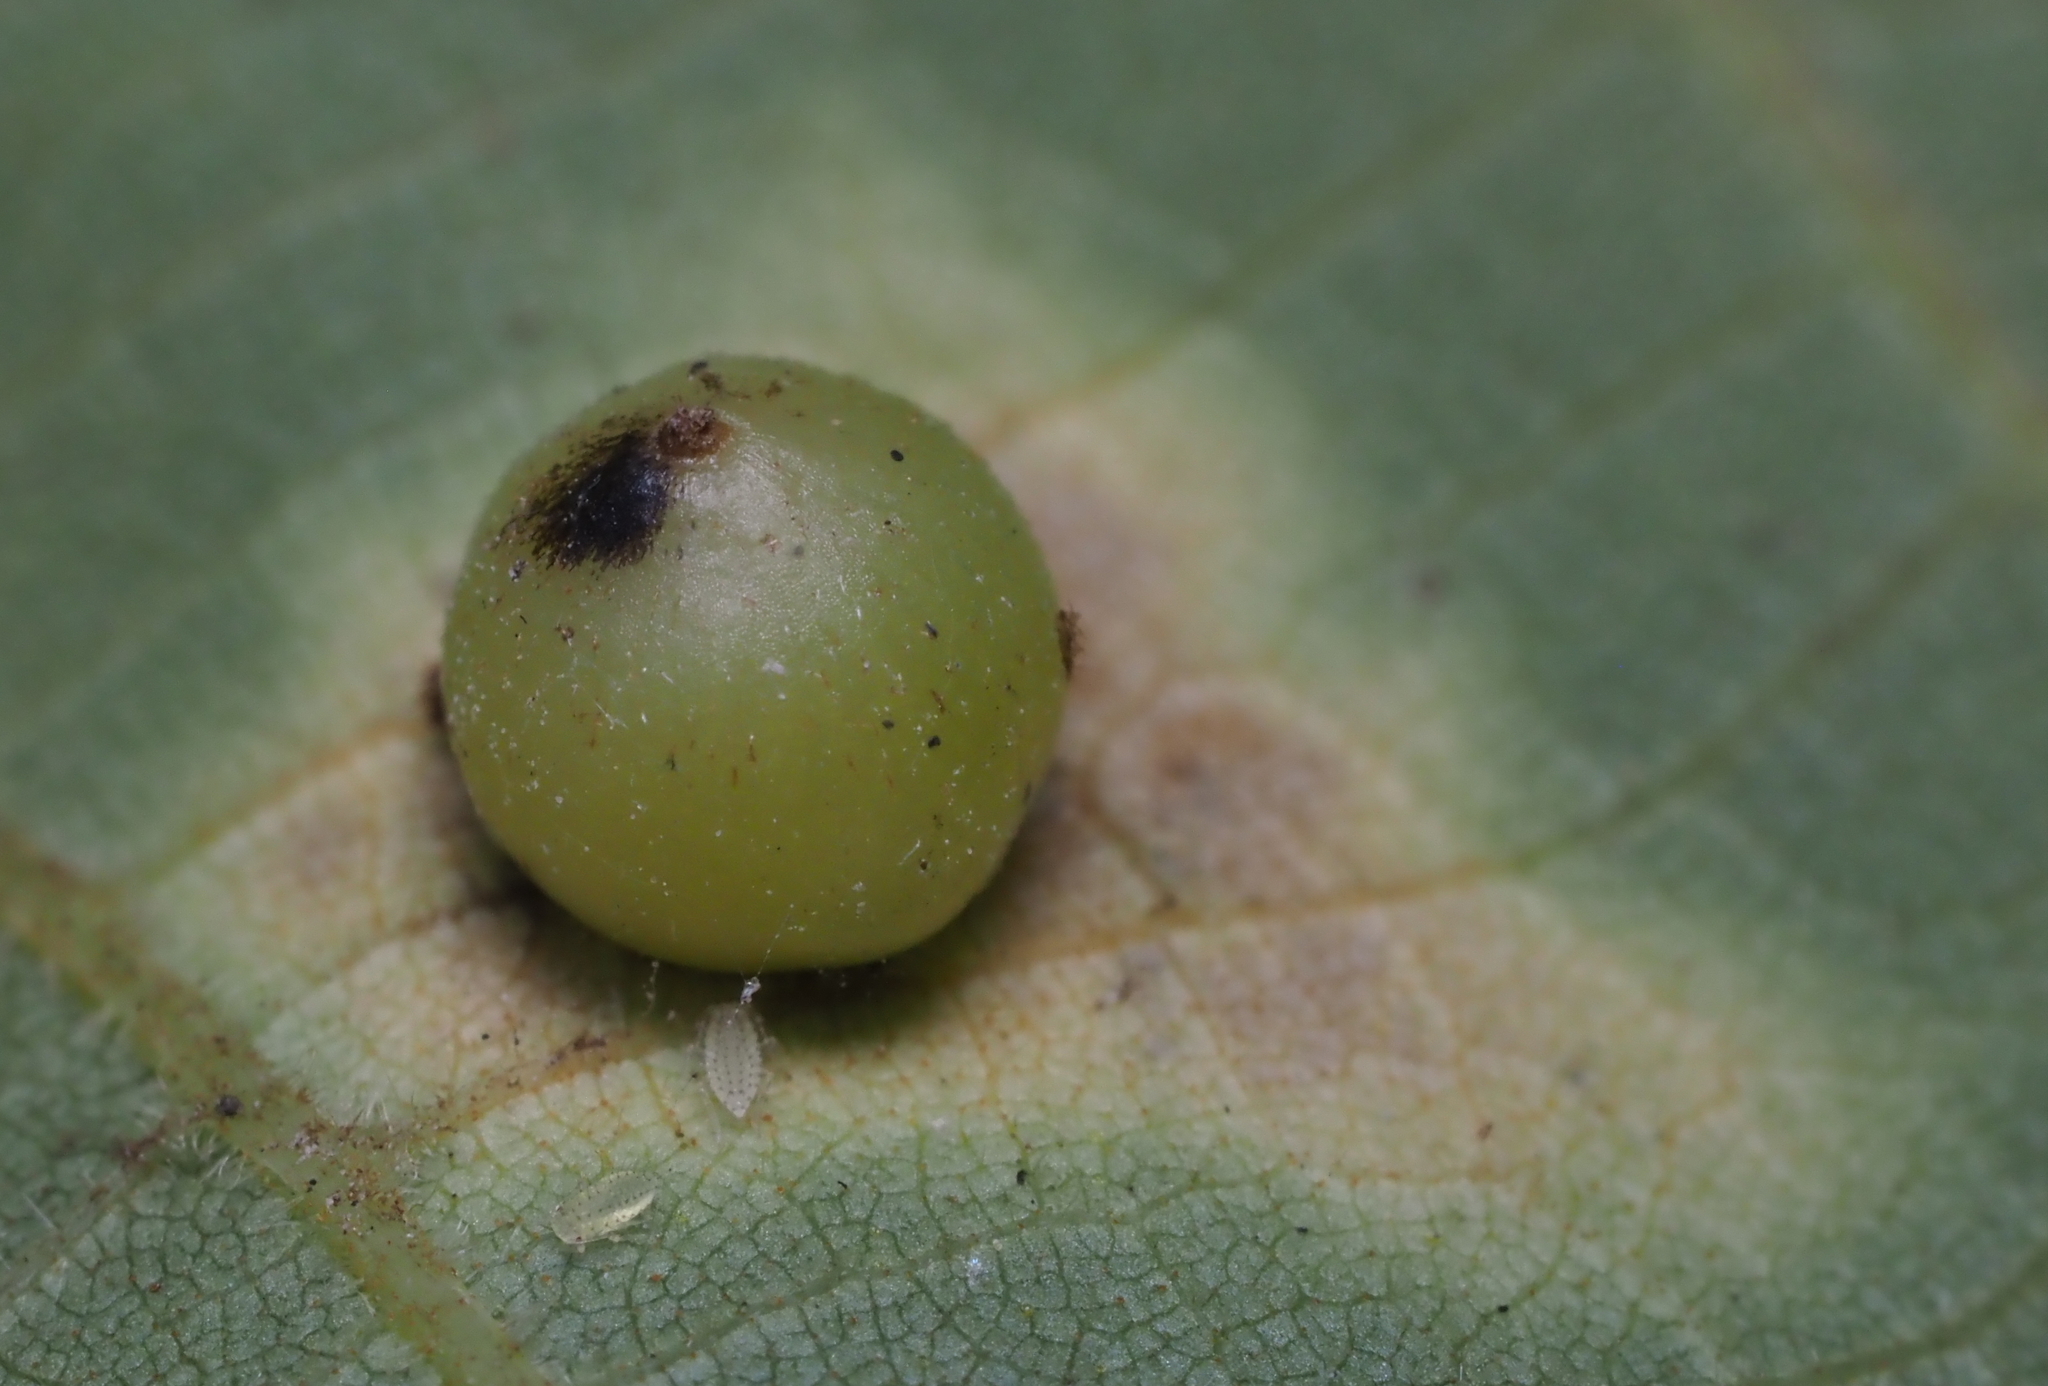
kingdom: Animalia
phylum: Arthropoda
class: Insecta
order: Diptera
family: Cecidomyiidae
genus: Caryomyia
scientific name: Caryomyia deflexipili
